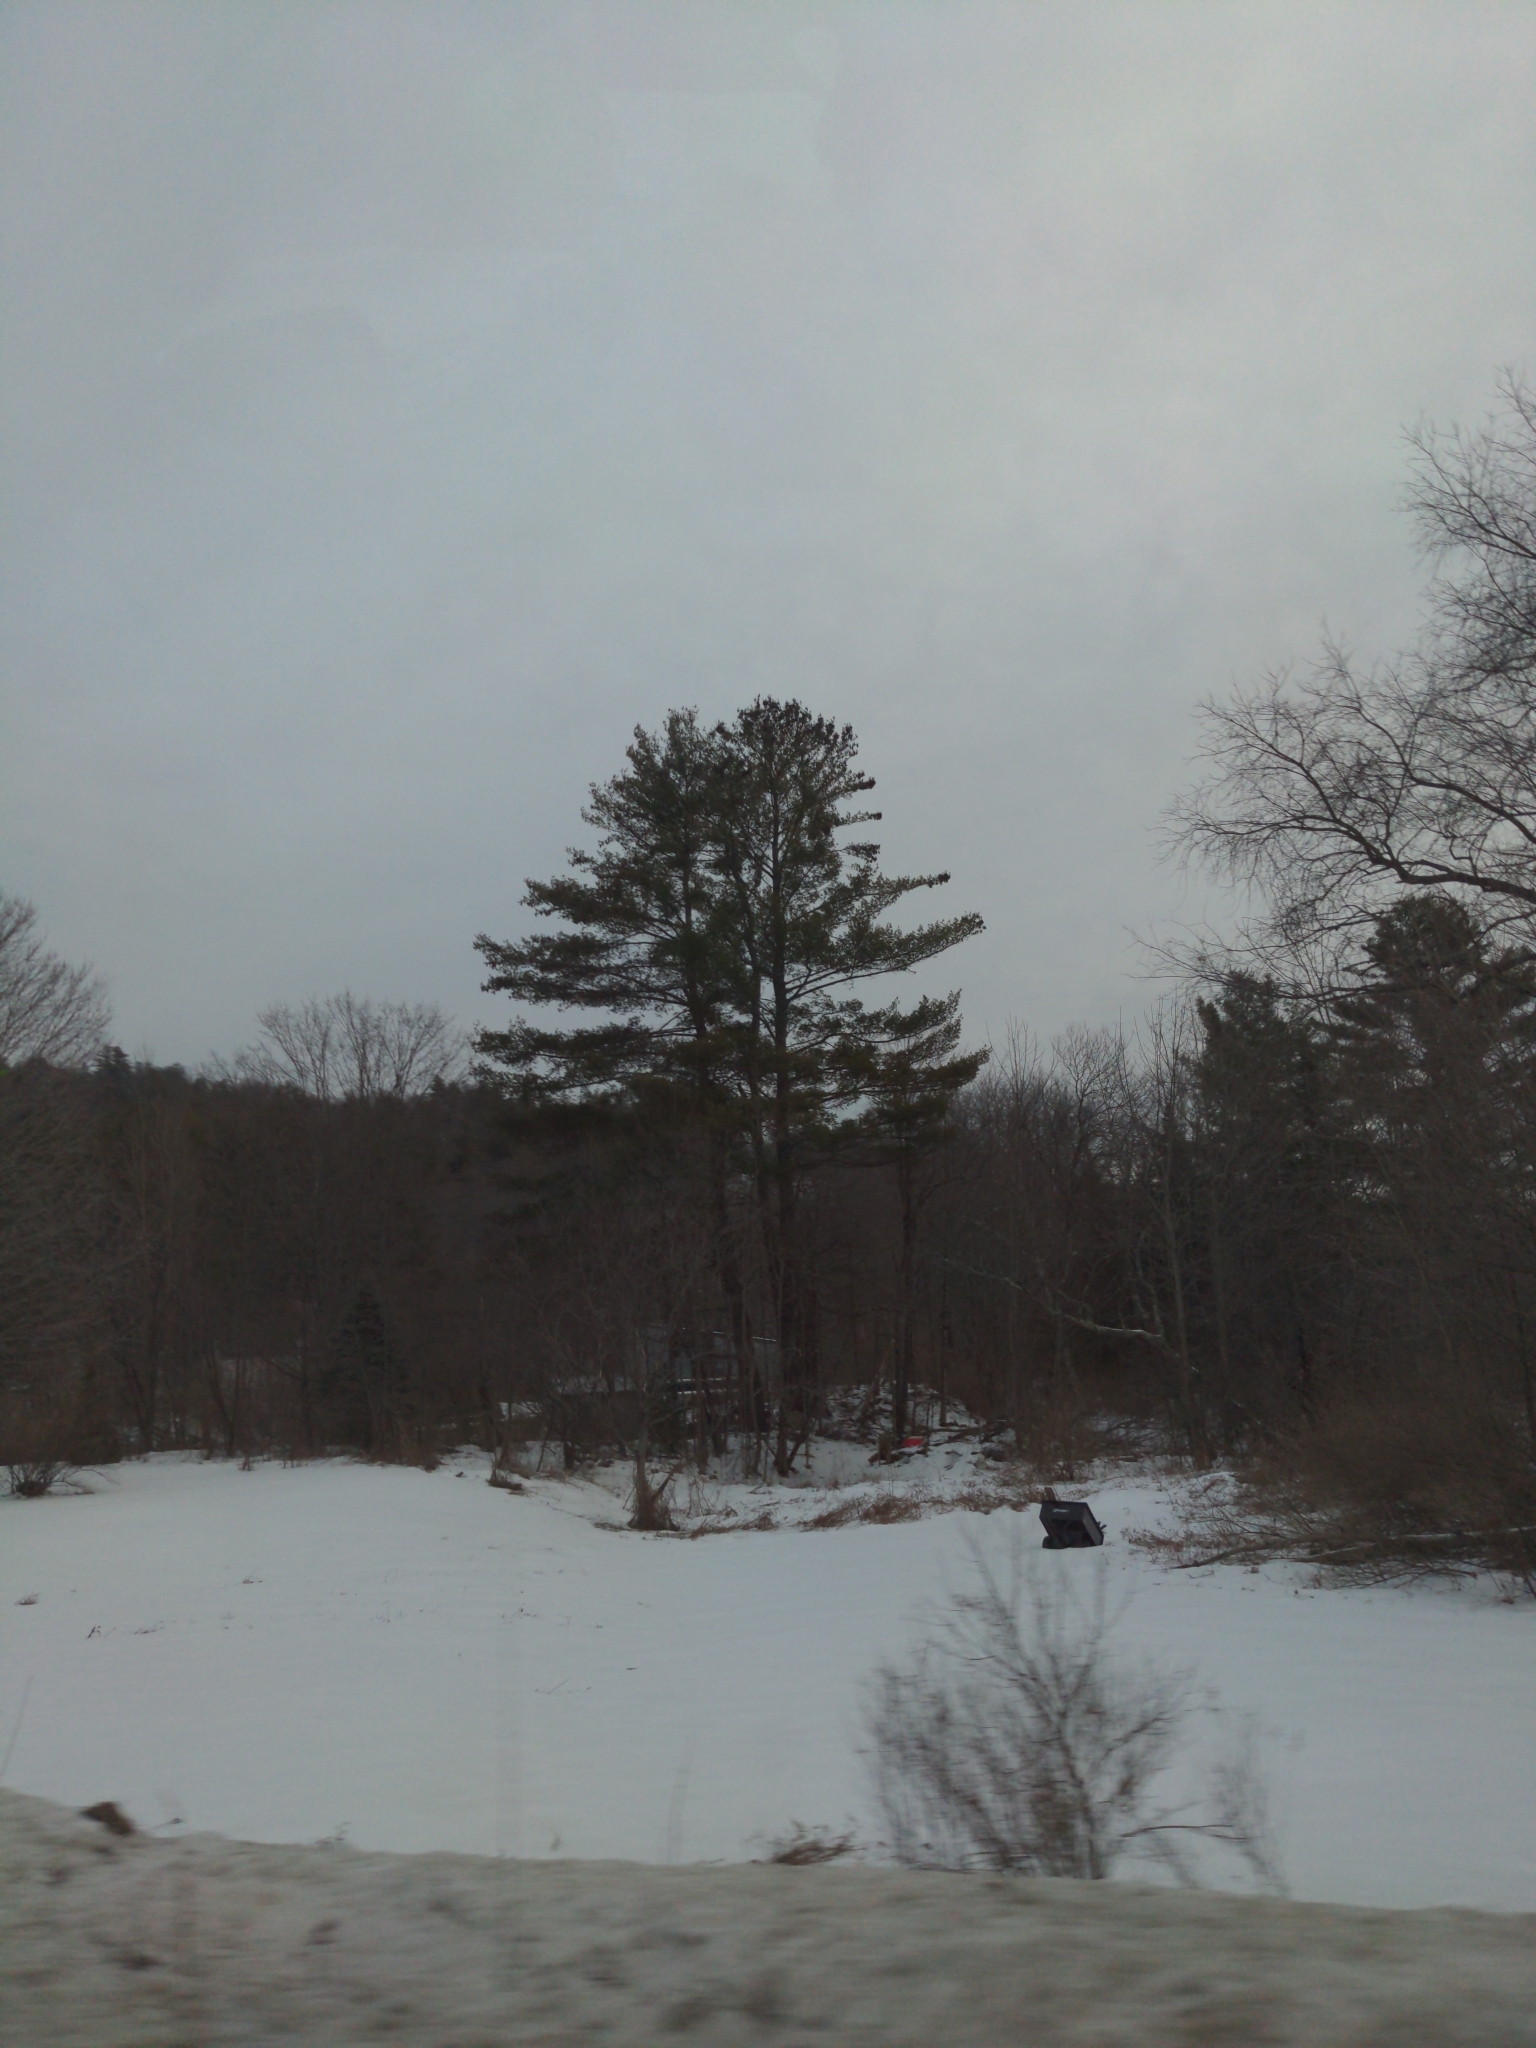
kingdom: Plantae
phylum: Tracheophyta
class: Pinopsida
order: Pinales
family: Pinaceae
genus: Pinus
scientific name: Pinus strobus
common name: Weymouth pine
